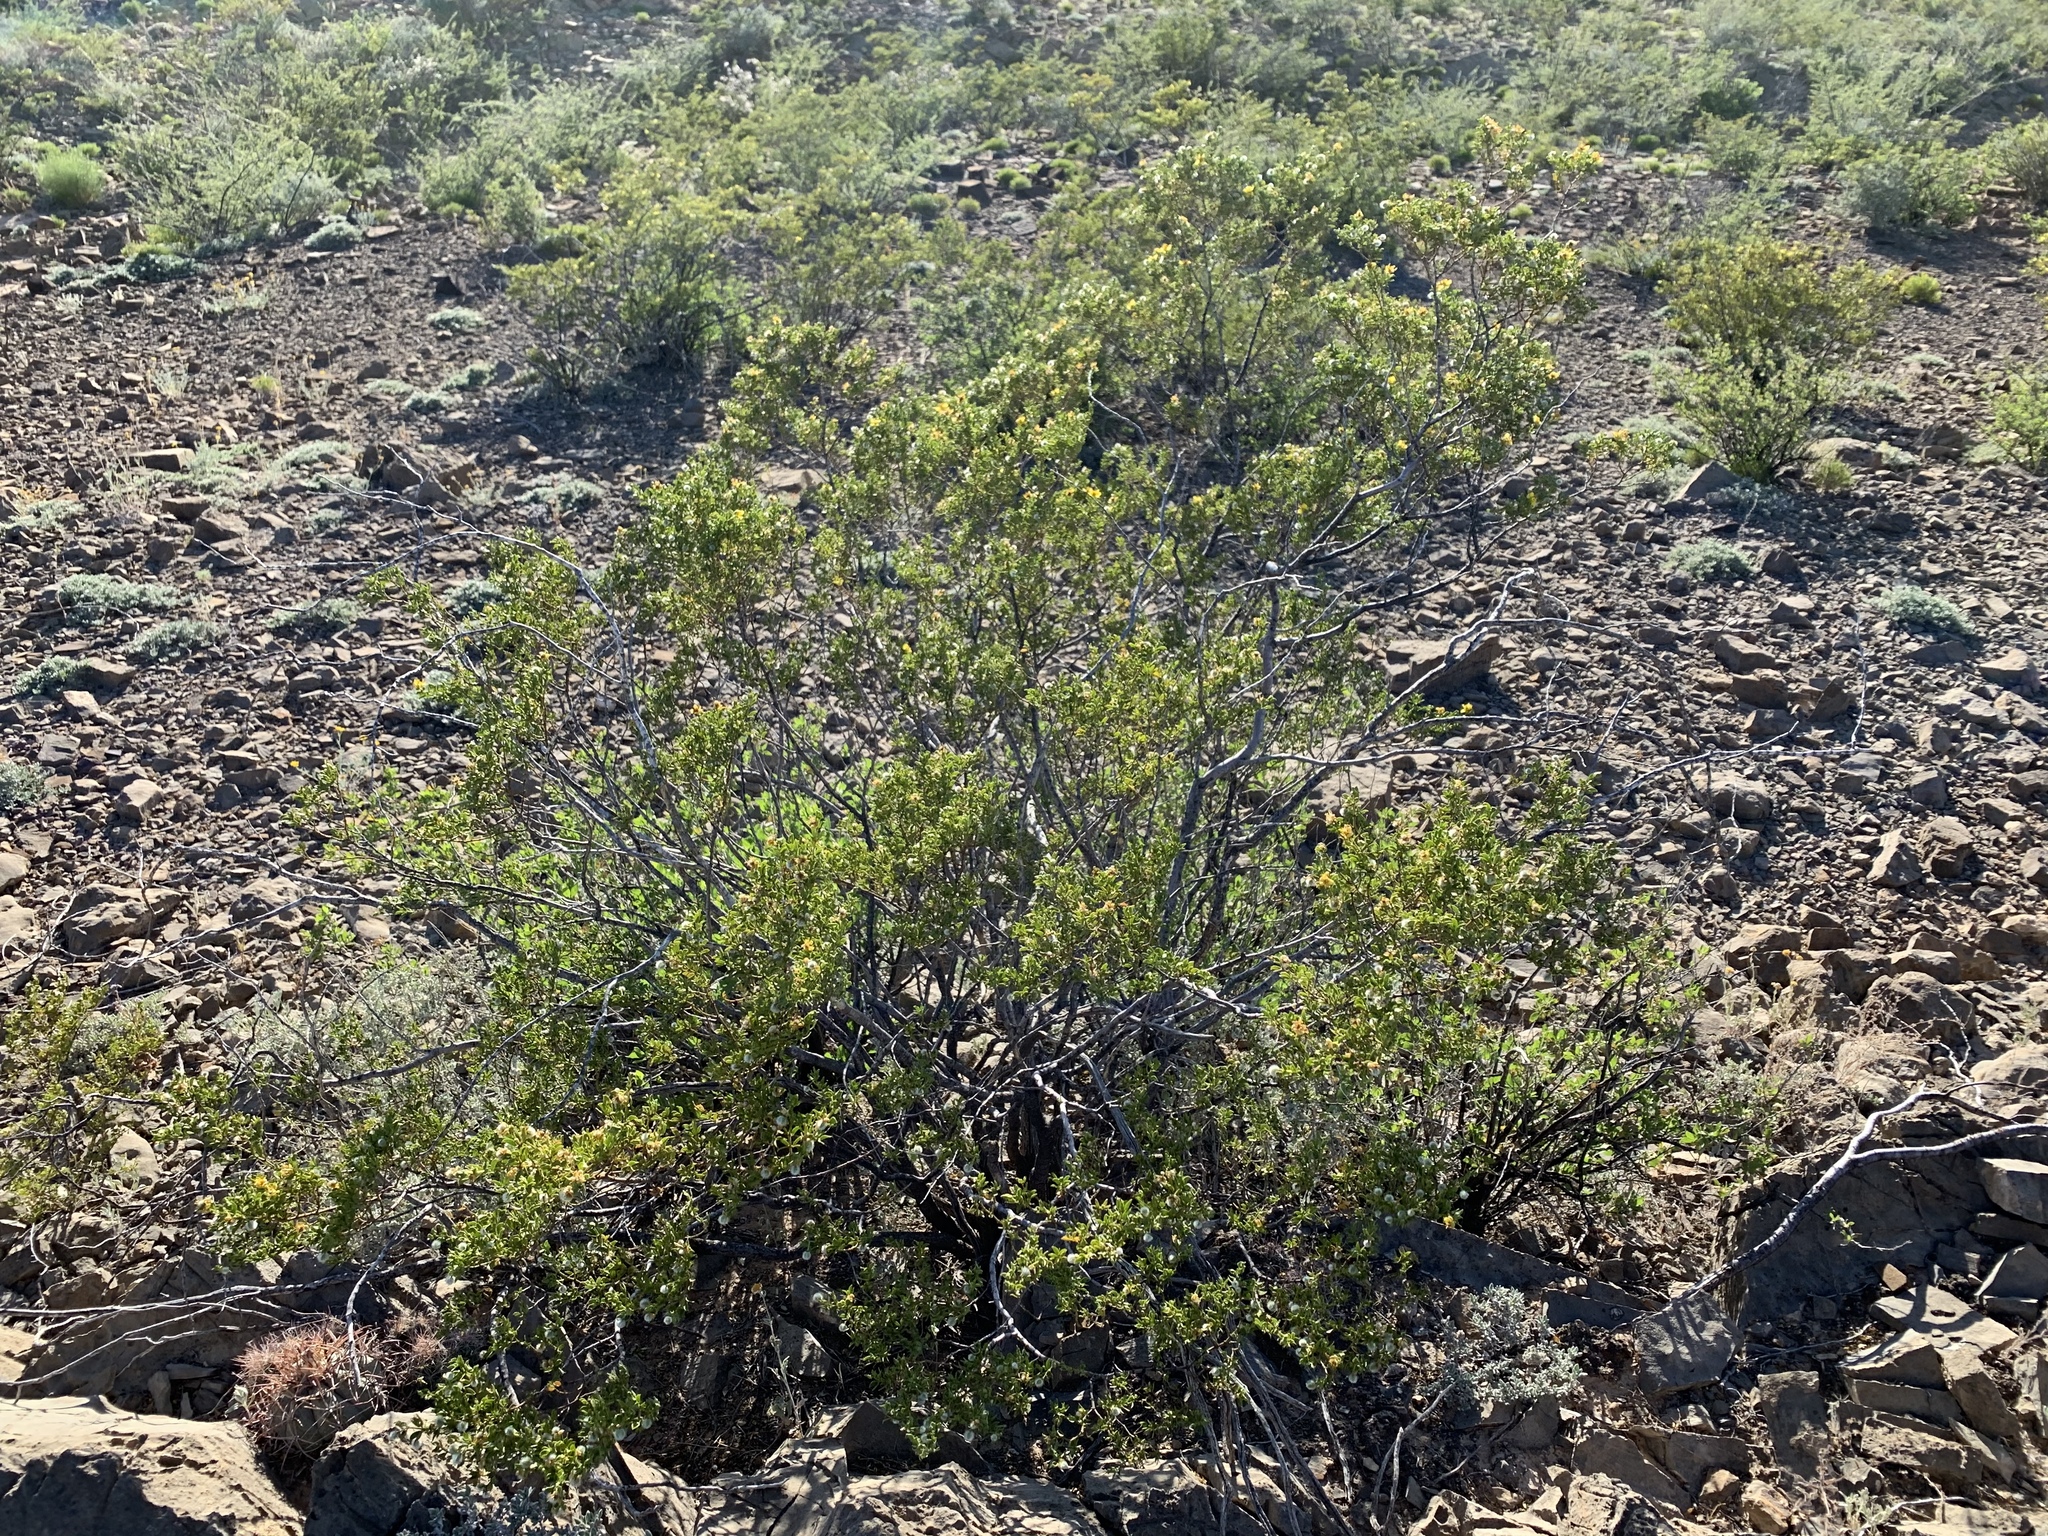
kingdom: Plantae
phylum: Tracheophyta
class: Magnoliopsida
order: Zygophyllales
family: Zygophyllaceae
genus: Larrea
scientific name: Larrea tridentata
